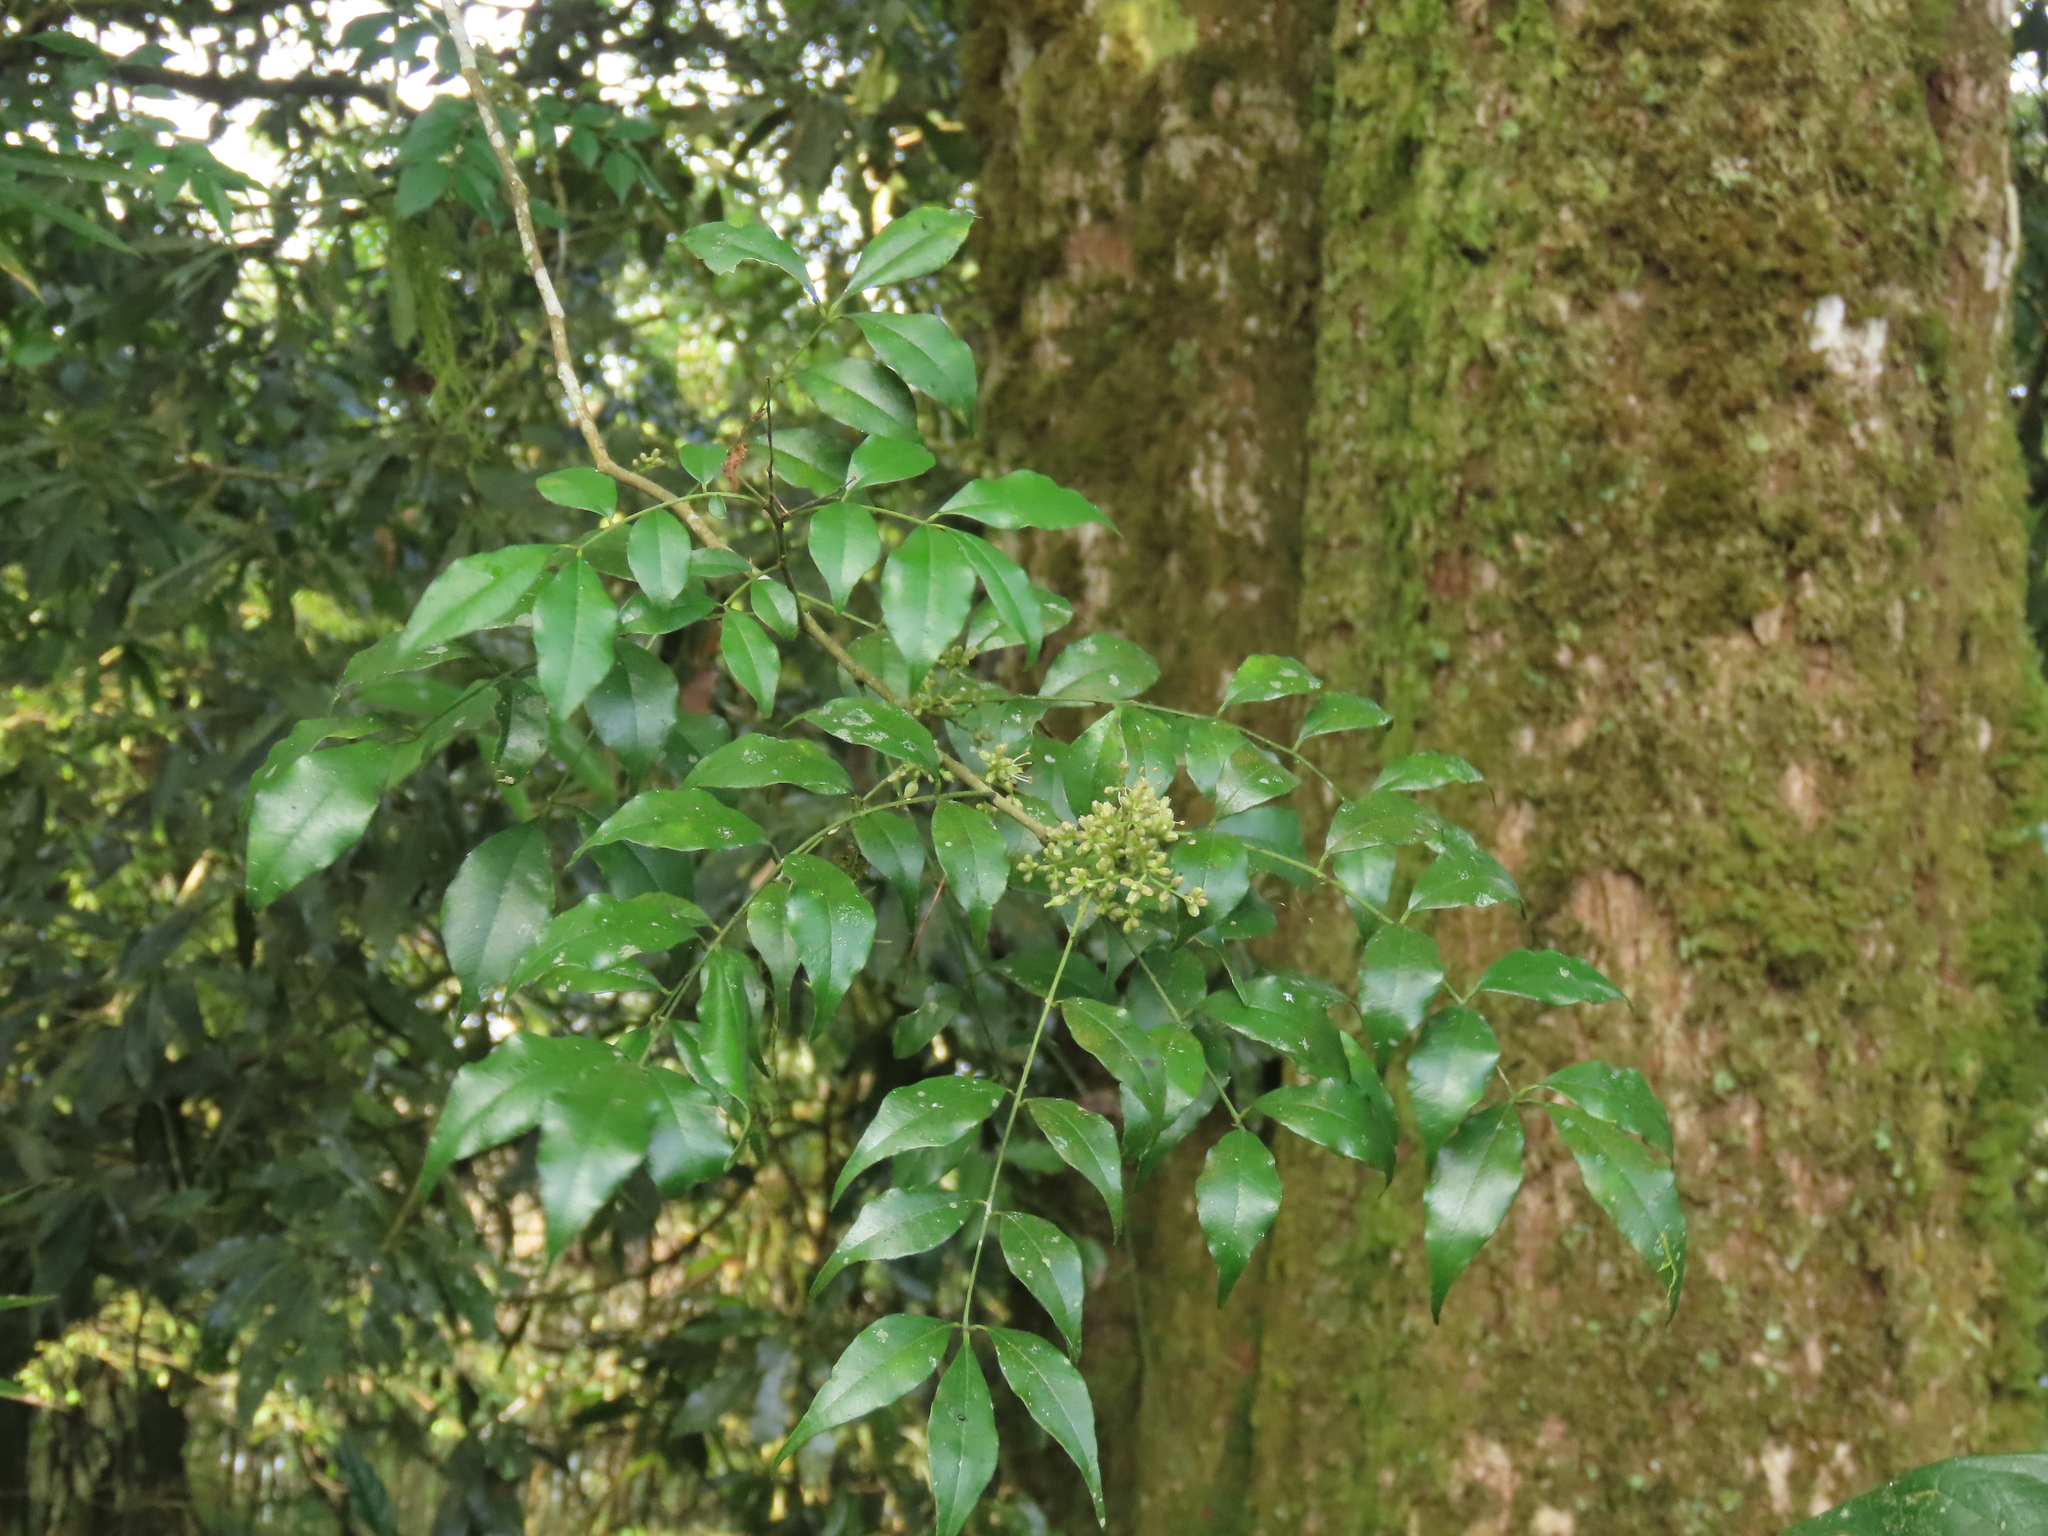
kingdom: Plantae
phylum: Tracheophyta
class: Magnoliopsida
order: Sapindales
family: Rutaceae
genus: Zanthoxylum
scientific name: Zanthoxylum scandens
